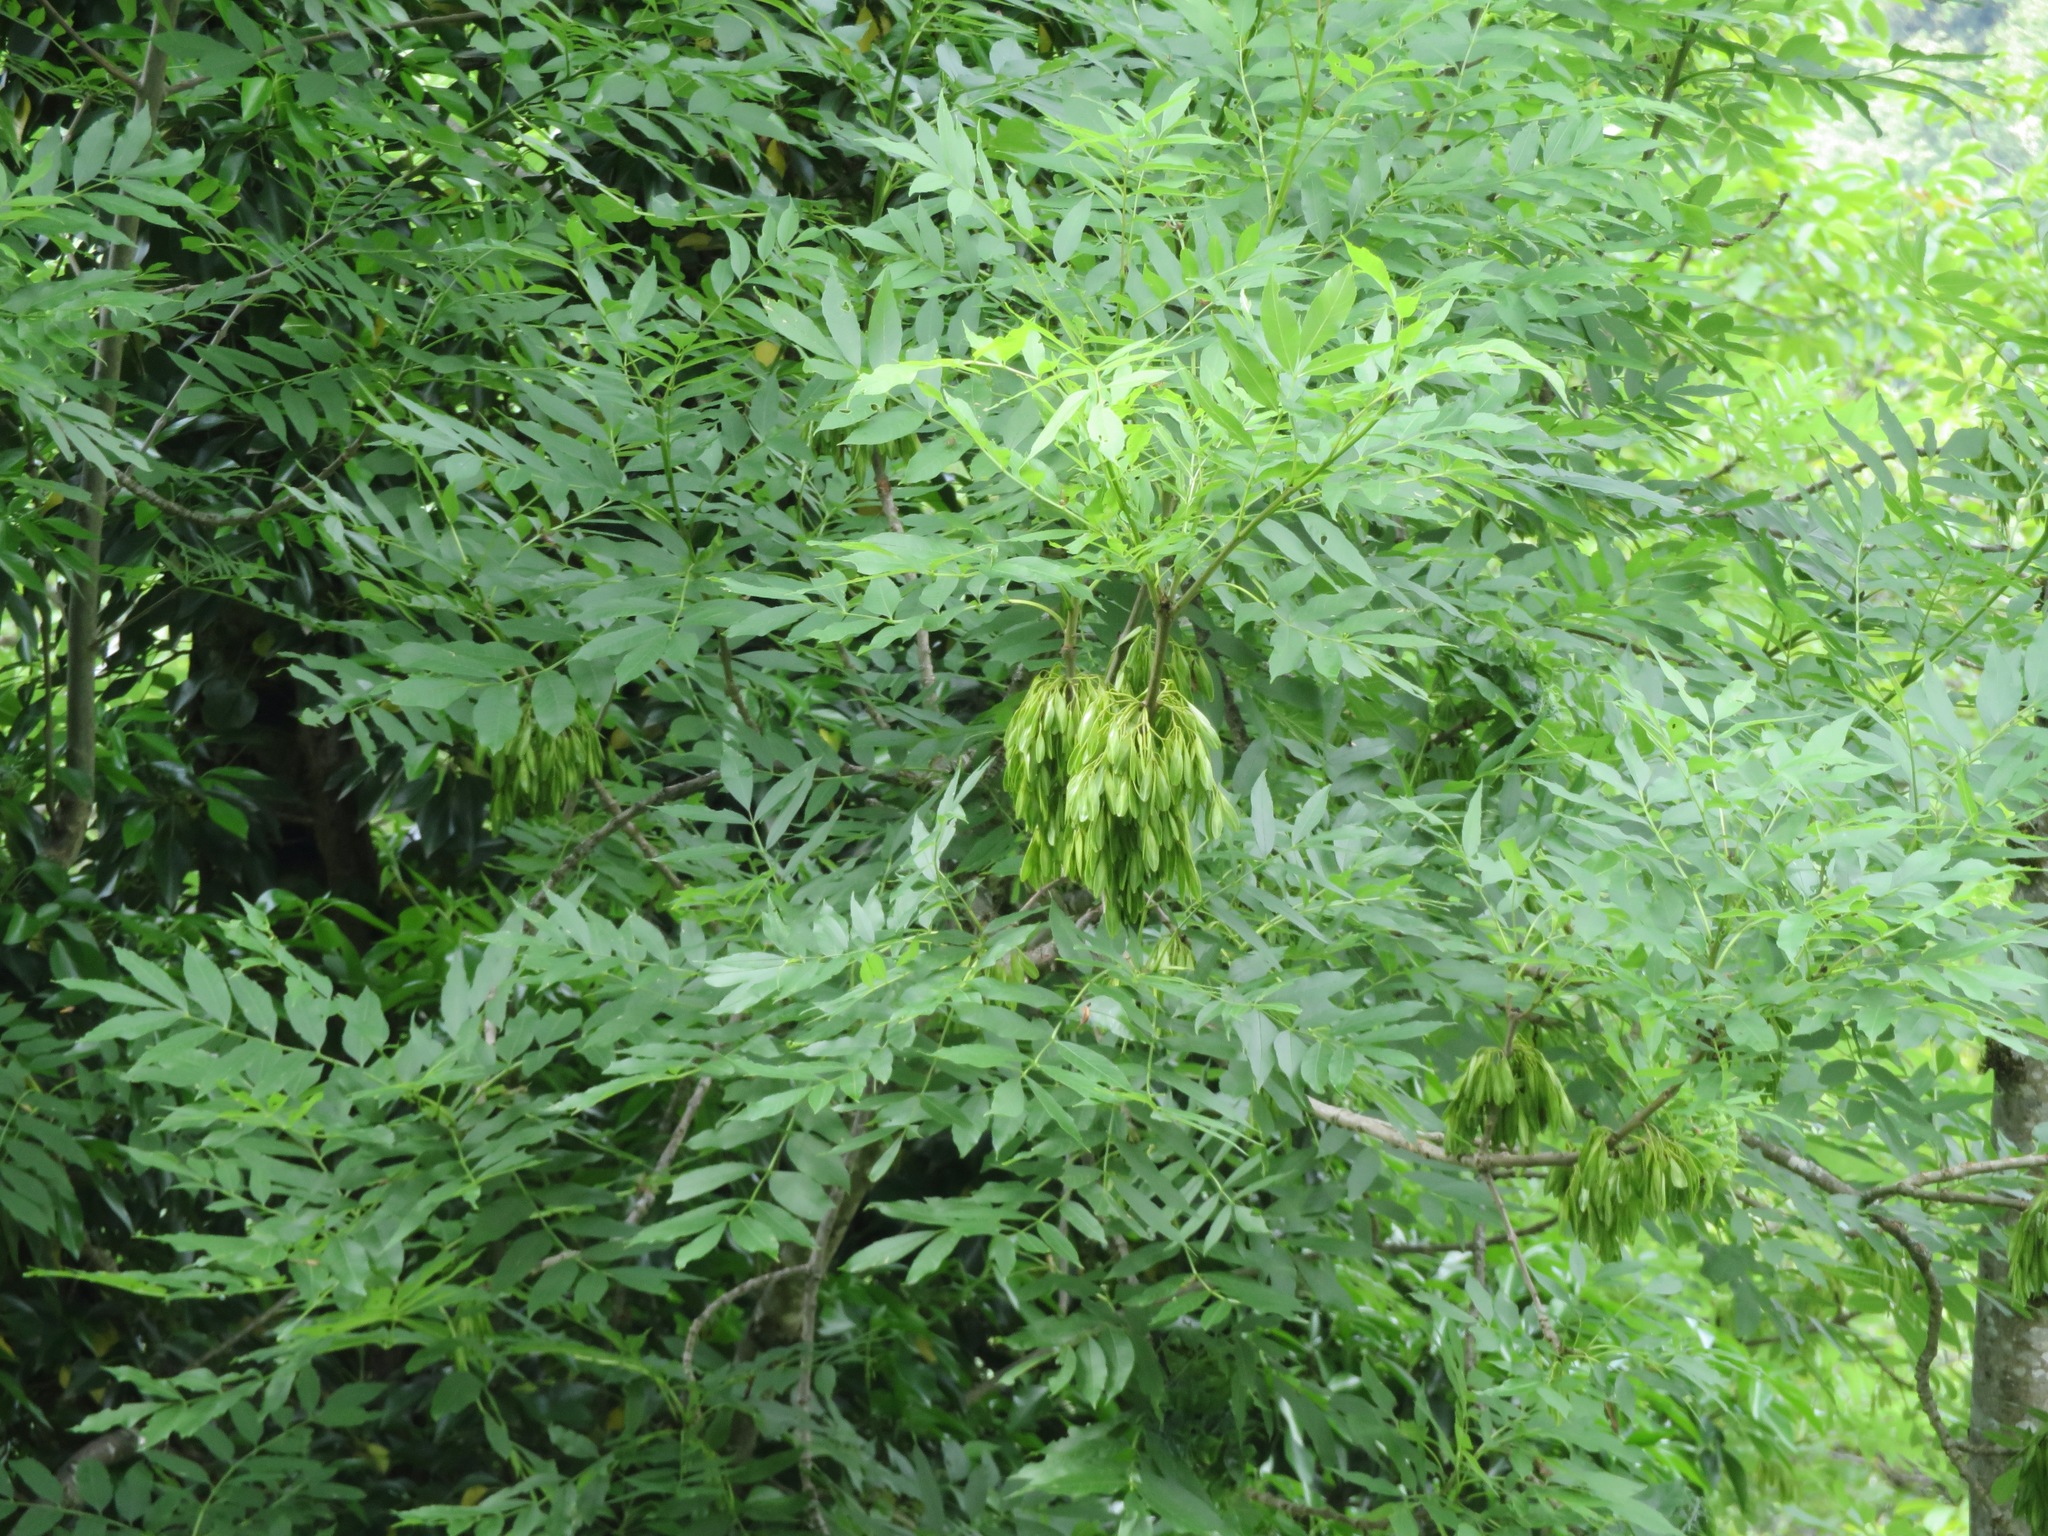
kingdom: Plantae
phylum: Tracheophyta
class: Magnoliopsida
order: Lamiales
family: Oleaceae
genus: Fraxinus
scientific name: Fraxinus excelsior
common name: European ash
